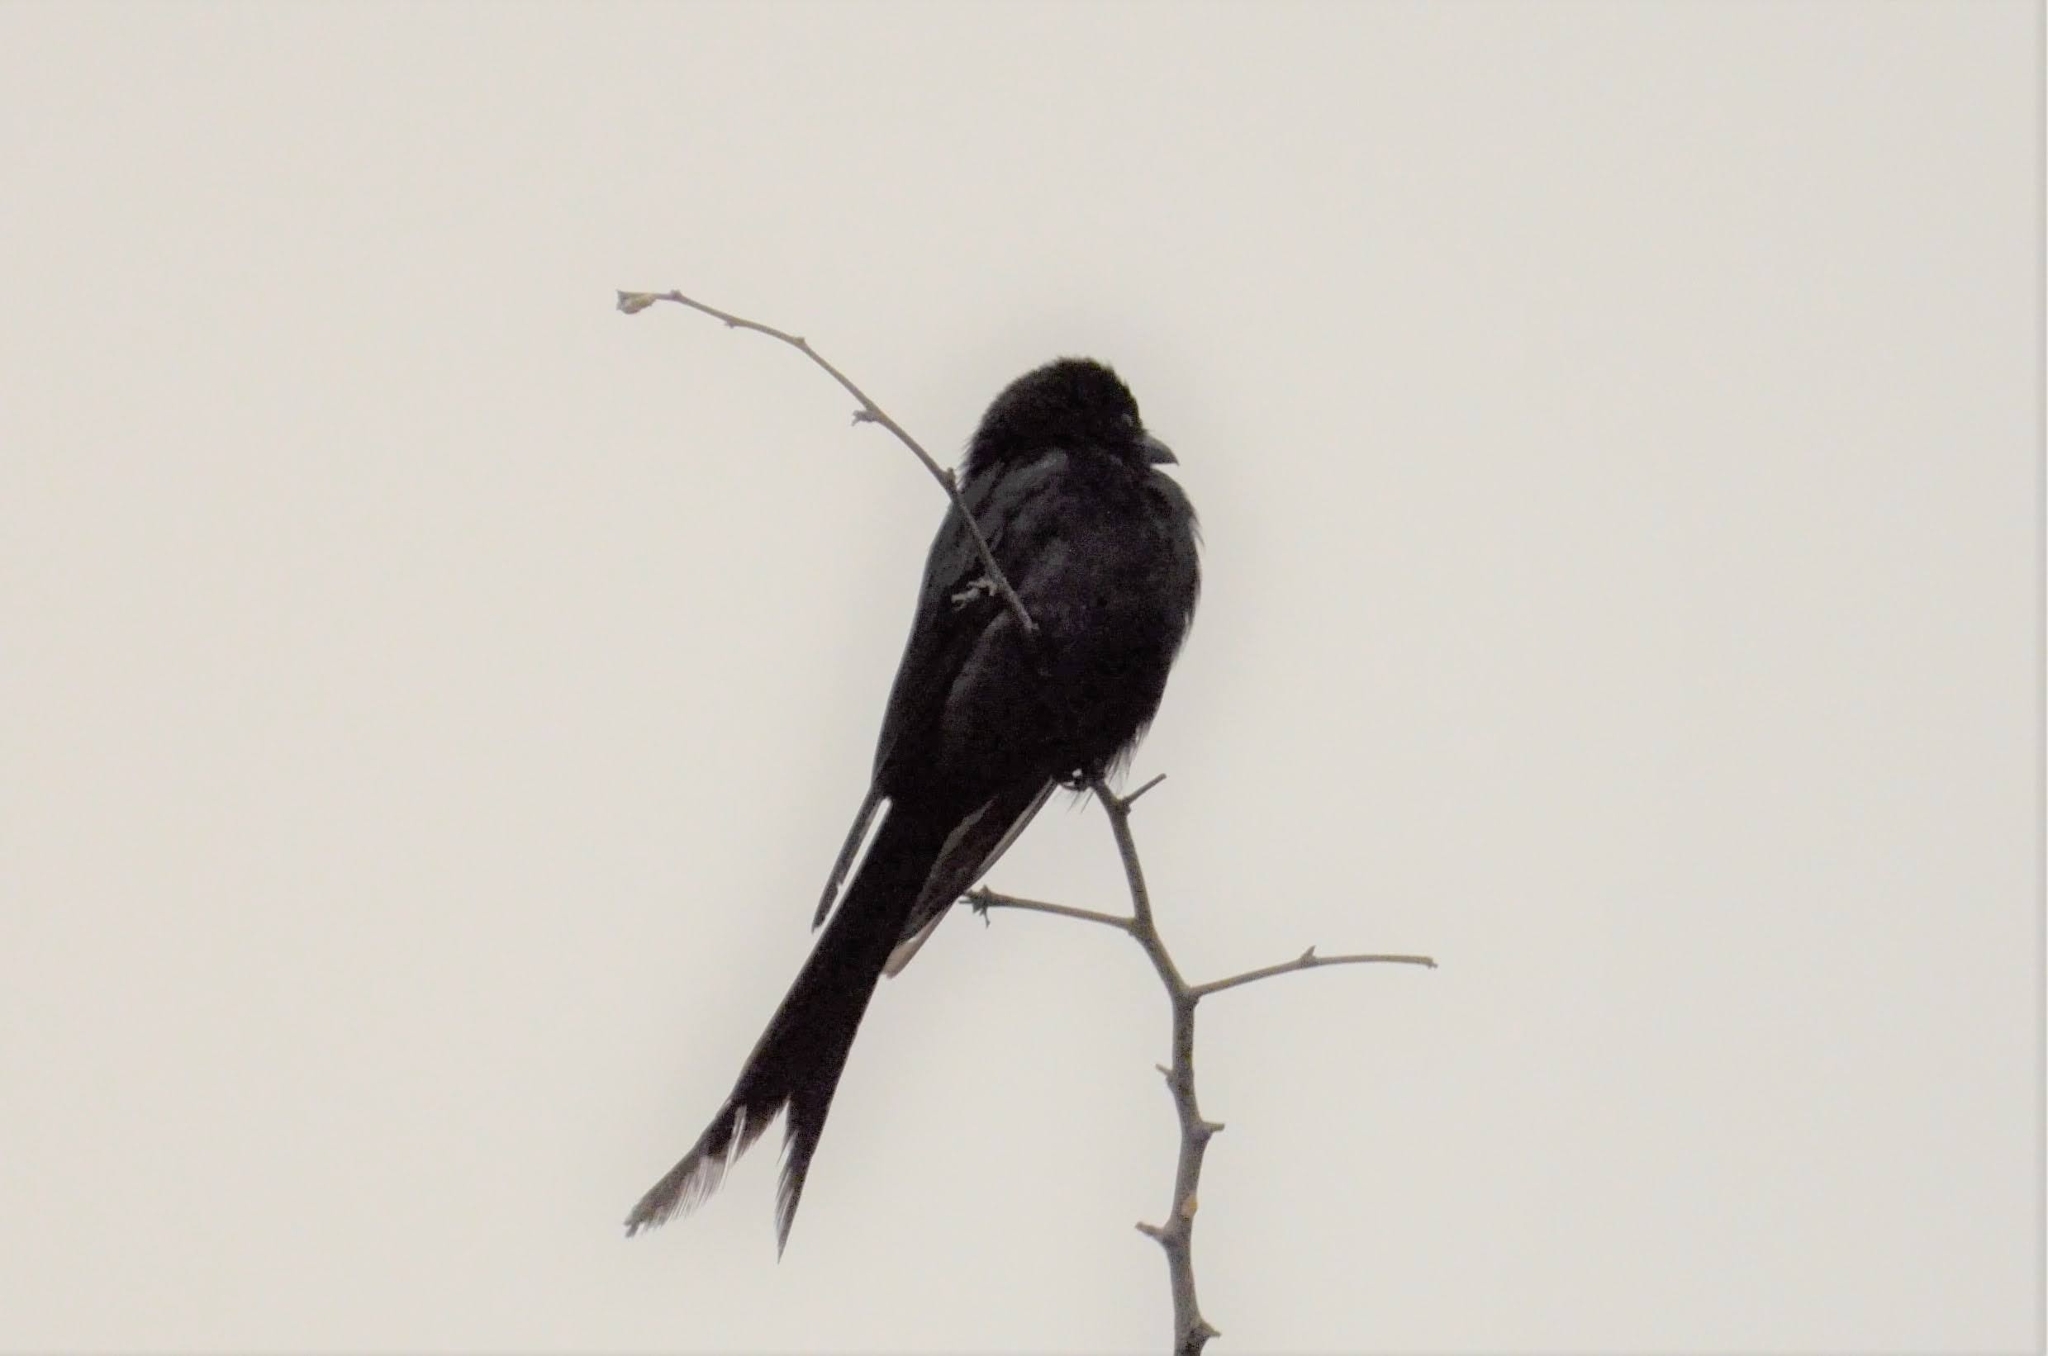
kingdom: Animalia
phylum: Chordata
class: Aves
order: Passeriformes
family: Dicruridae
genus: Dicrurus
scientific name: Dicrurus macrocercus
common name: Black drongo
